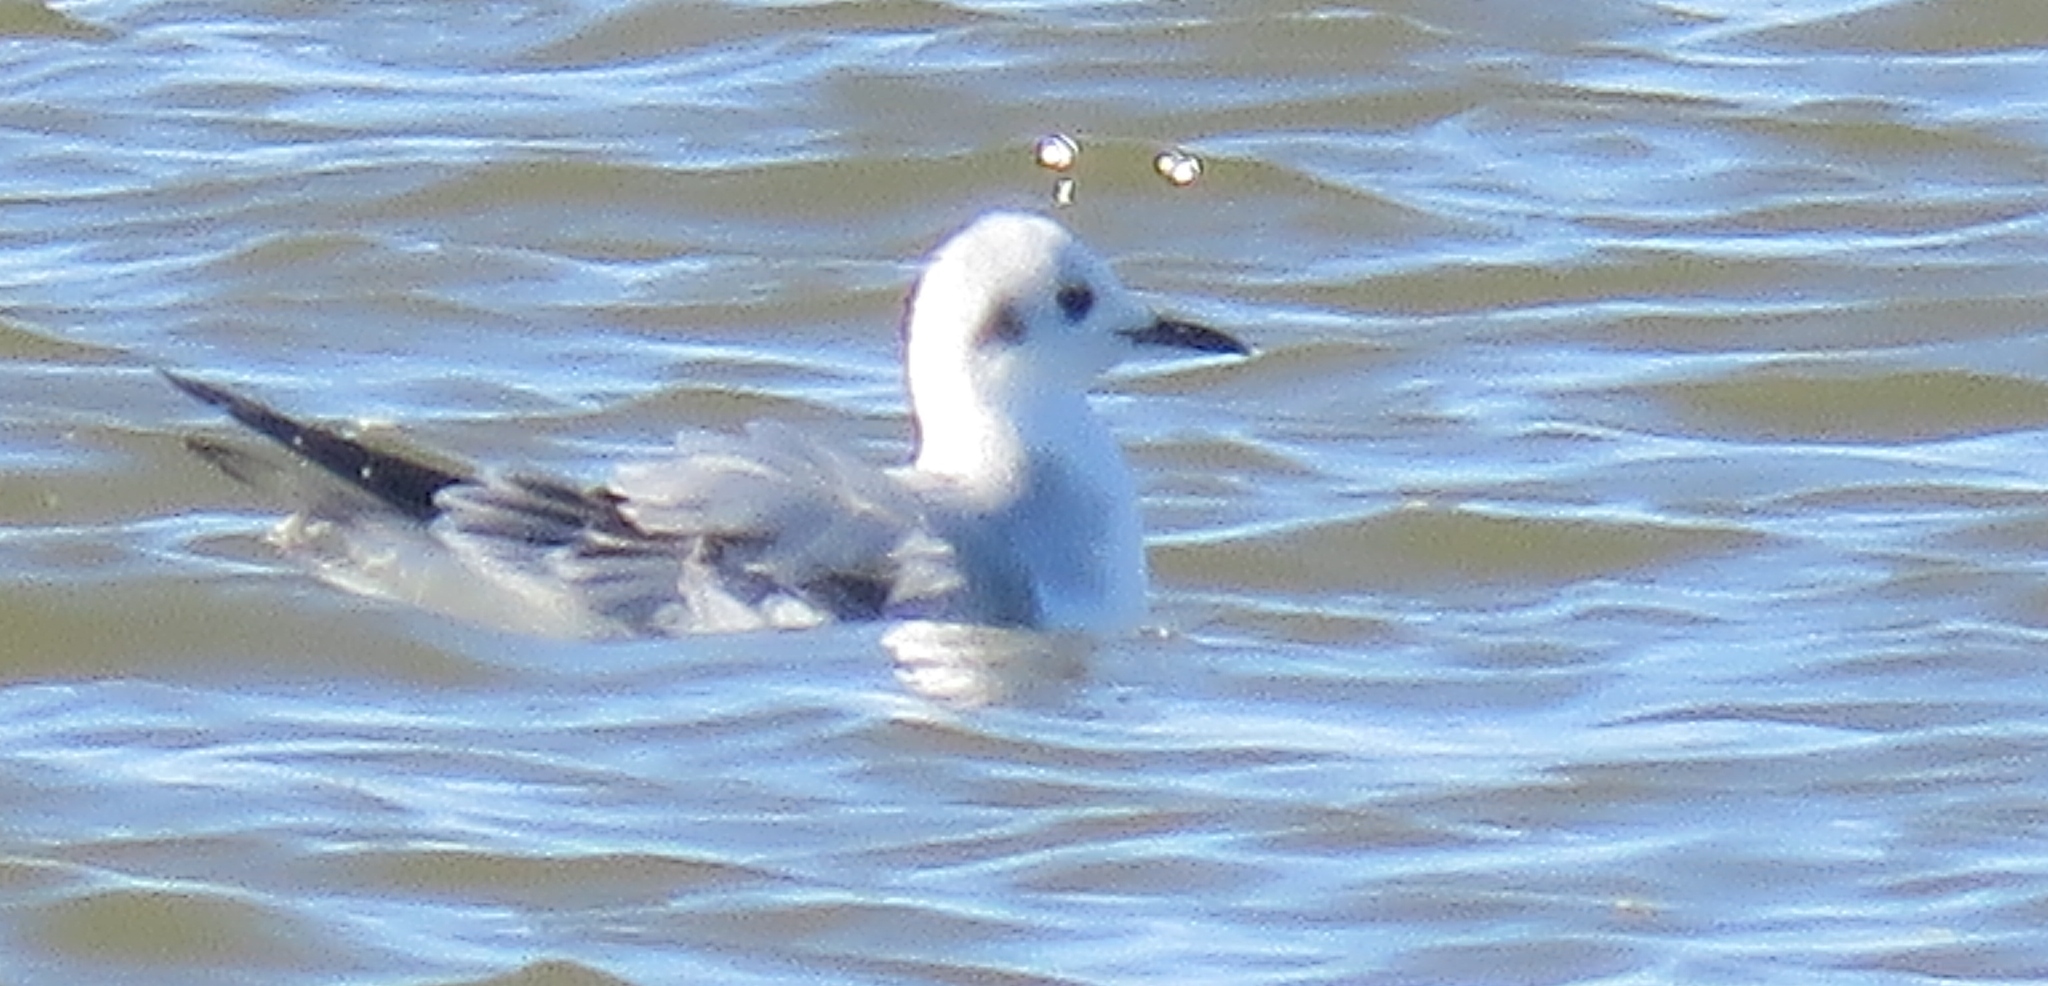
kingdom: Animalia
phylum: Chordata
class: Aves
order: Charadriiformes
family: Laridae
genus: Chroicocephalus
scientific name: Chroicocephalus philadelphia
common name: Bonaparte's gull
